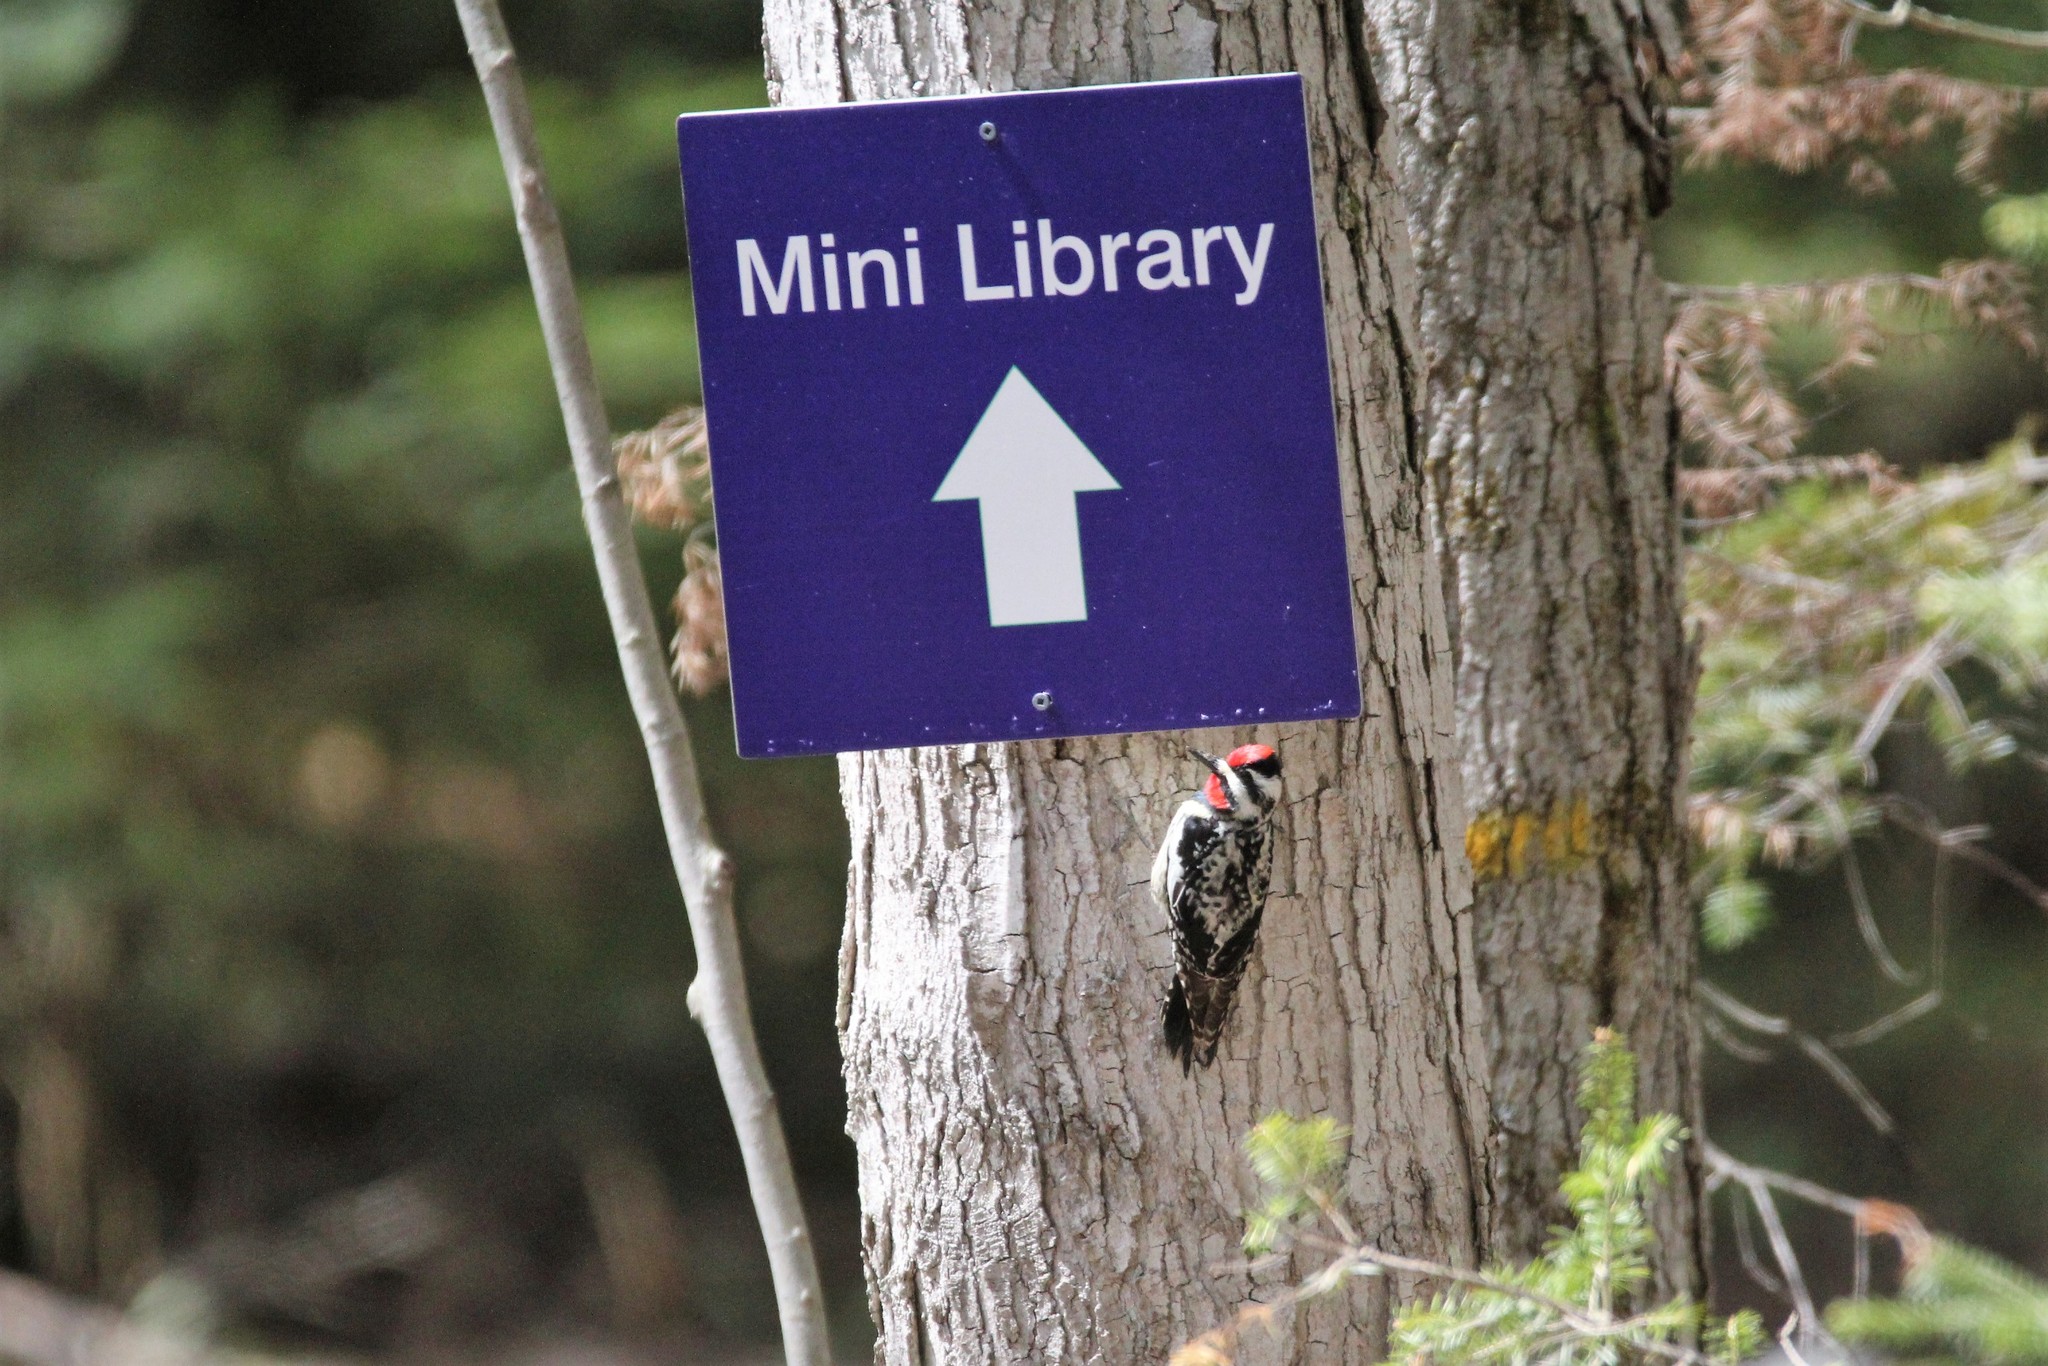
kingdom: Animalia
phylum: Chordata
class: Aves
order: Piciformes
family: Picidae
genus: Sphyrapicus
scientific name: Sphyrapicus varius
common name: Yellow-bellied sapsucker
